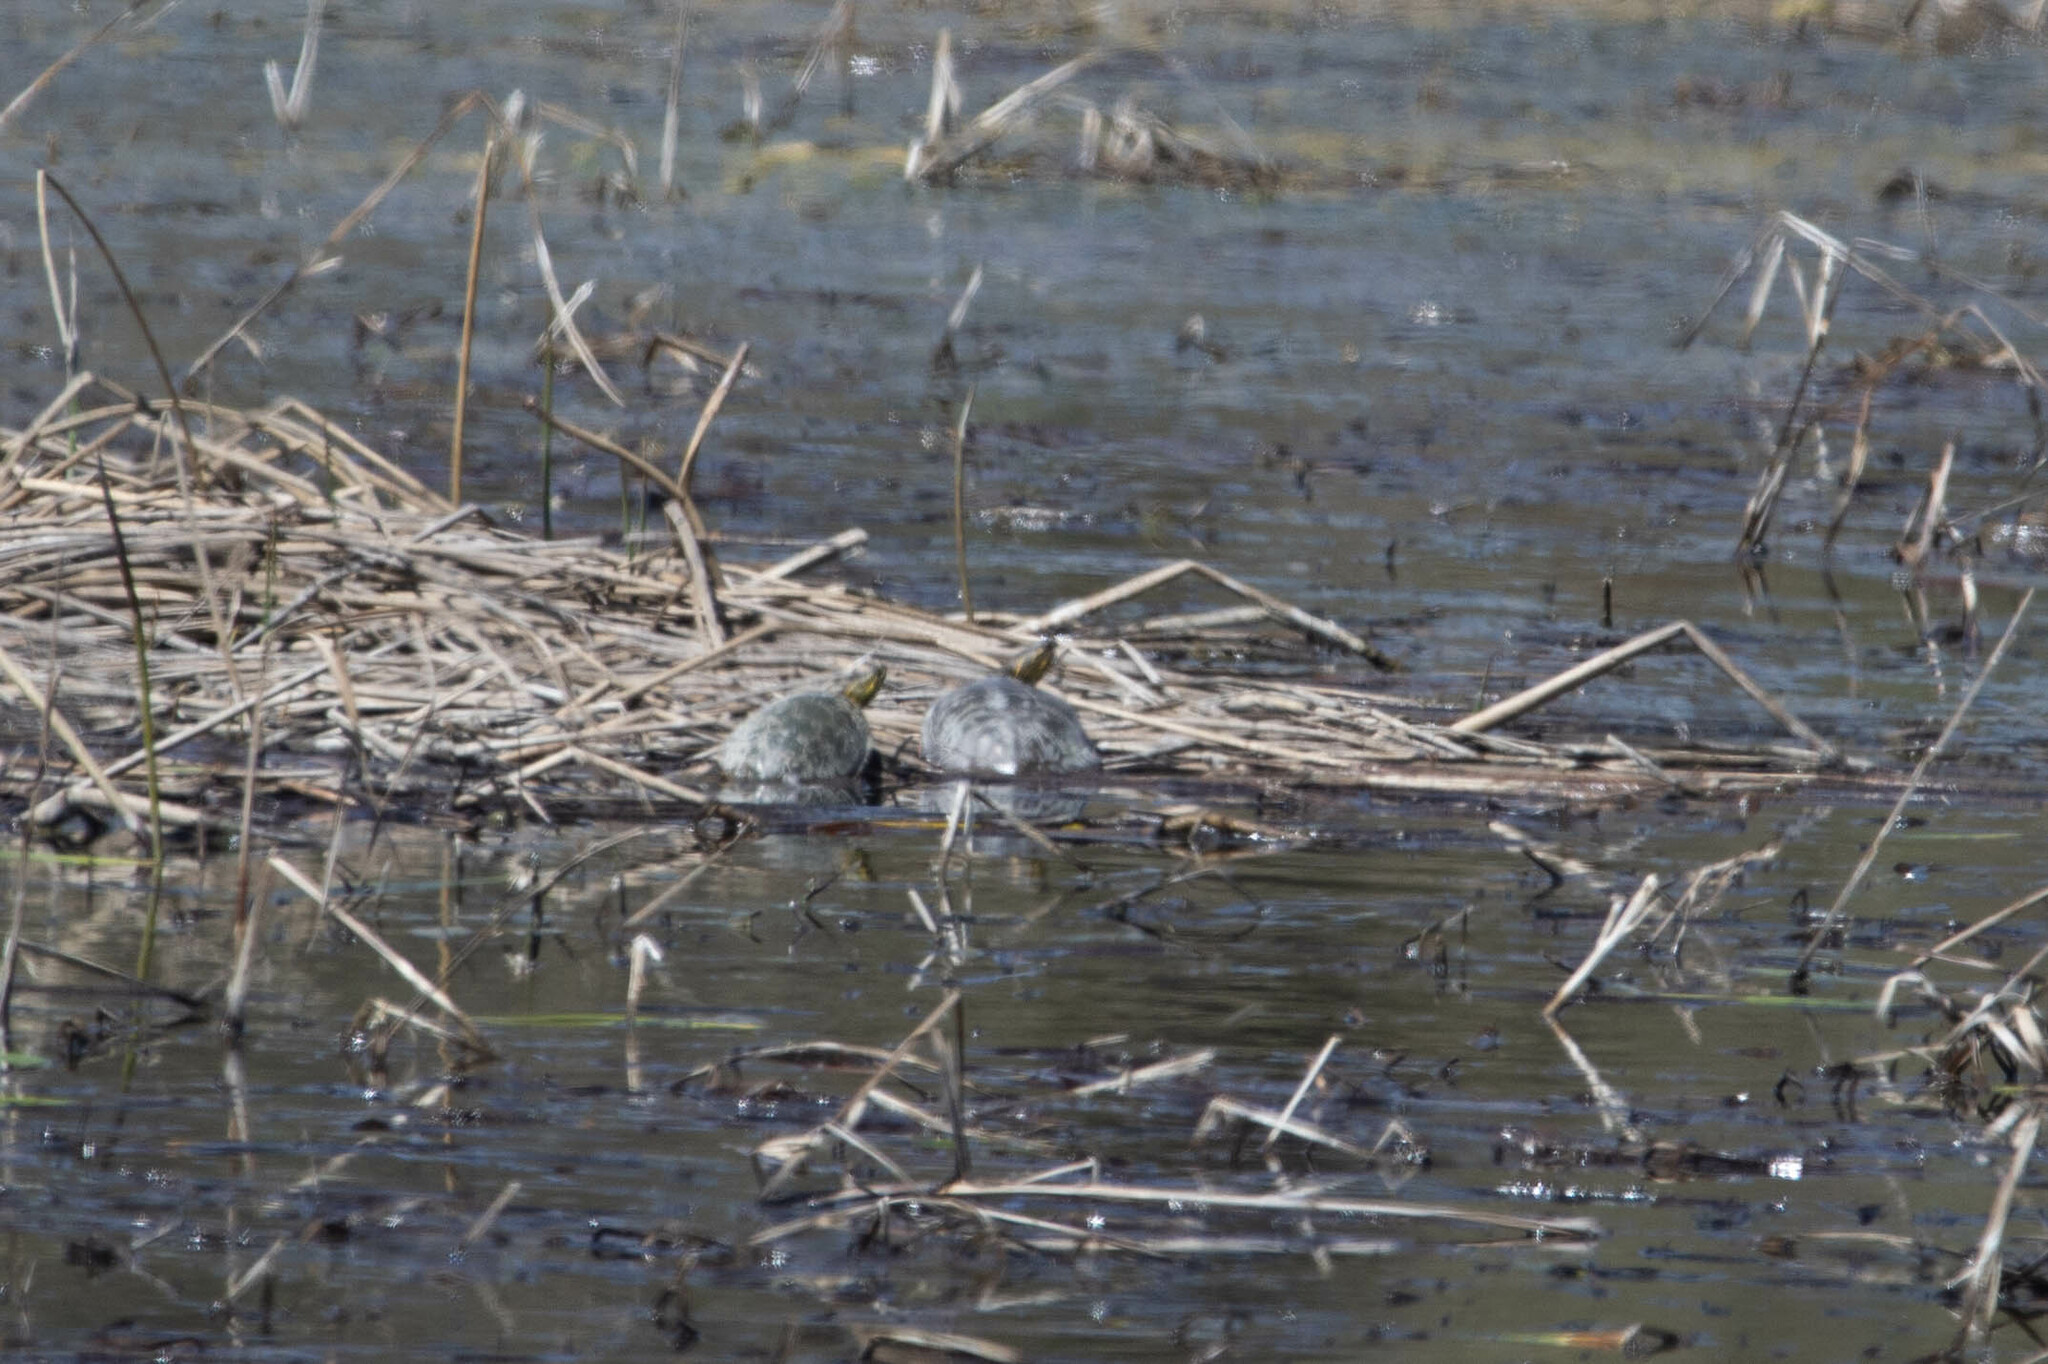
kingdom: Animalia
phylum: Chordata
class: Testudines
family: Emydidae
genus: Chrysemys
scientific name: Chrysemys picta
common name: Painted turtle
